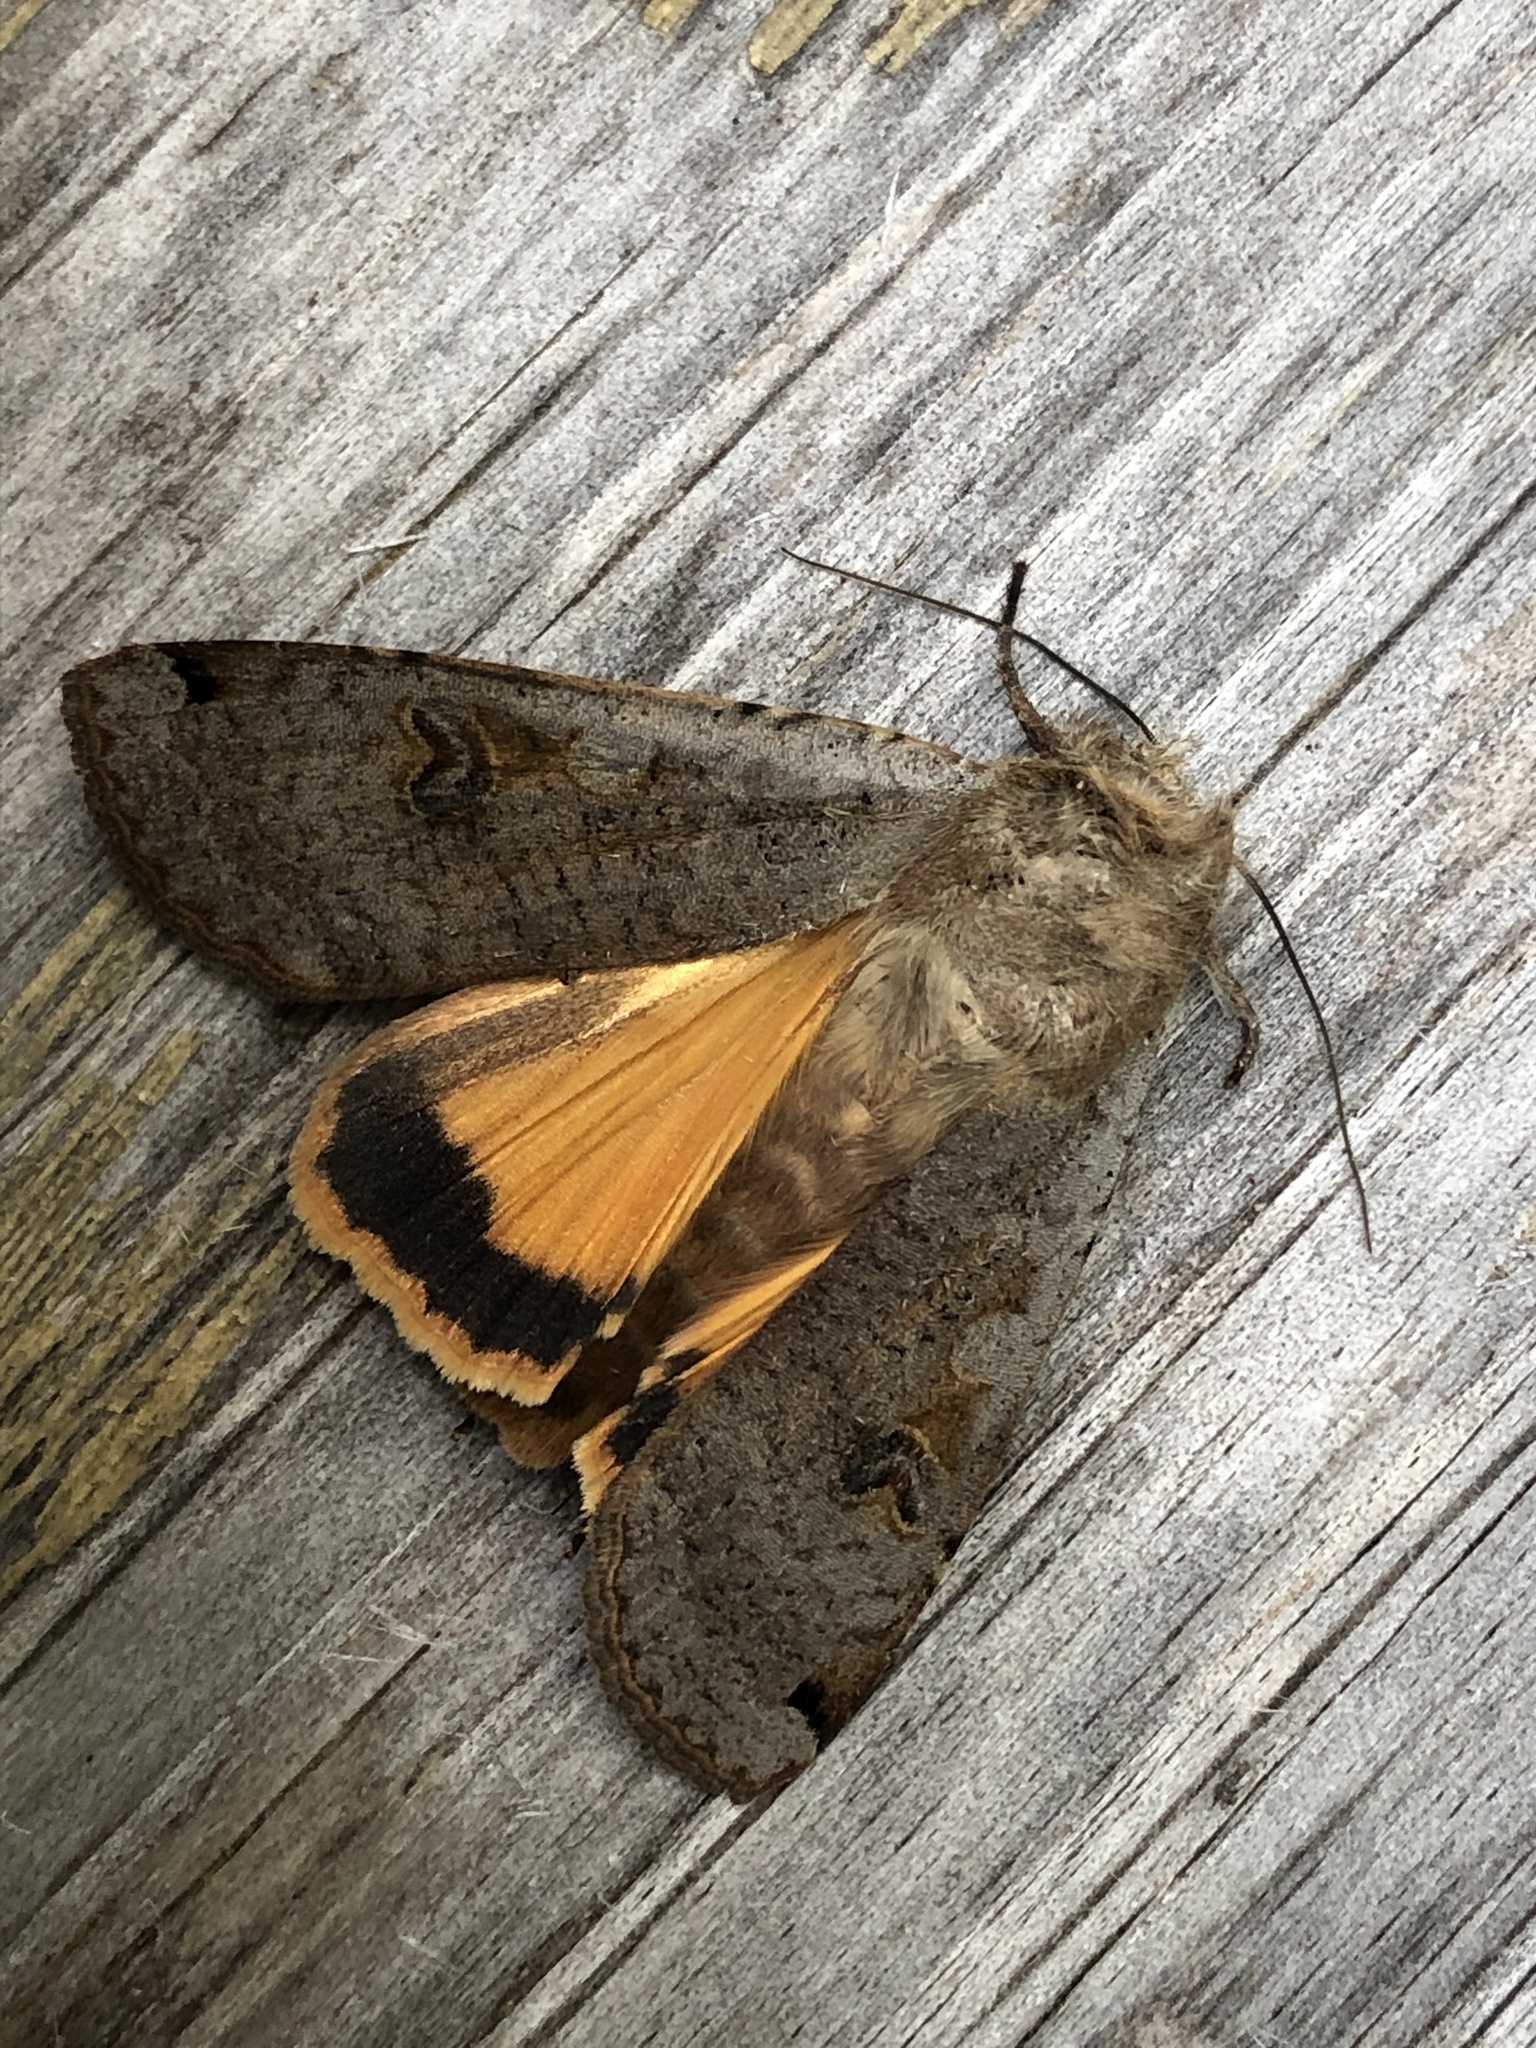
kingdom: Animalia
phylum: Arthropoda
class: Insecta
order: Lepidoptera
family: Noctuidae
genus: Noctua
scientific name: Noctua pronuba
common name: Large yellow underwing
